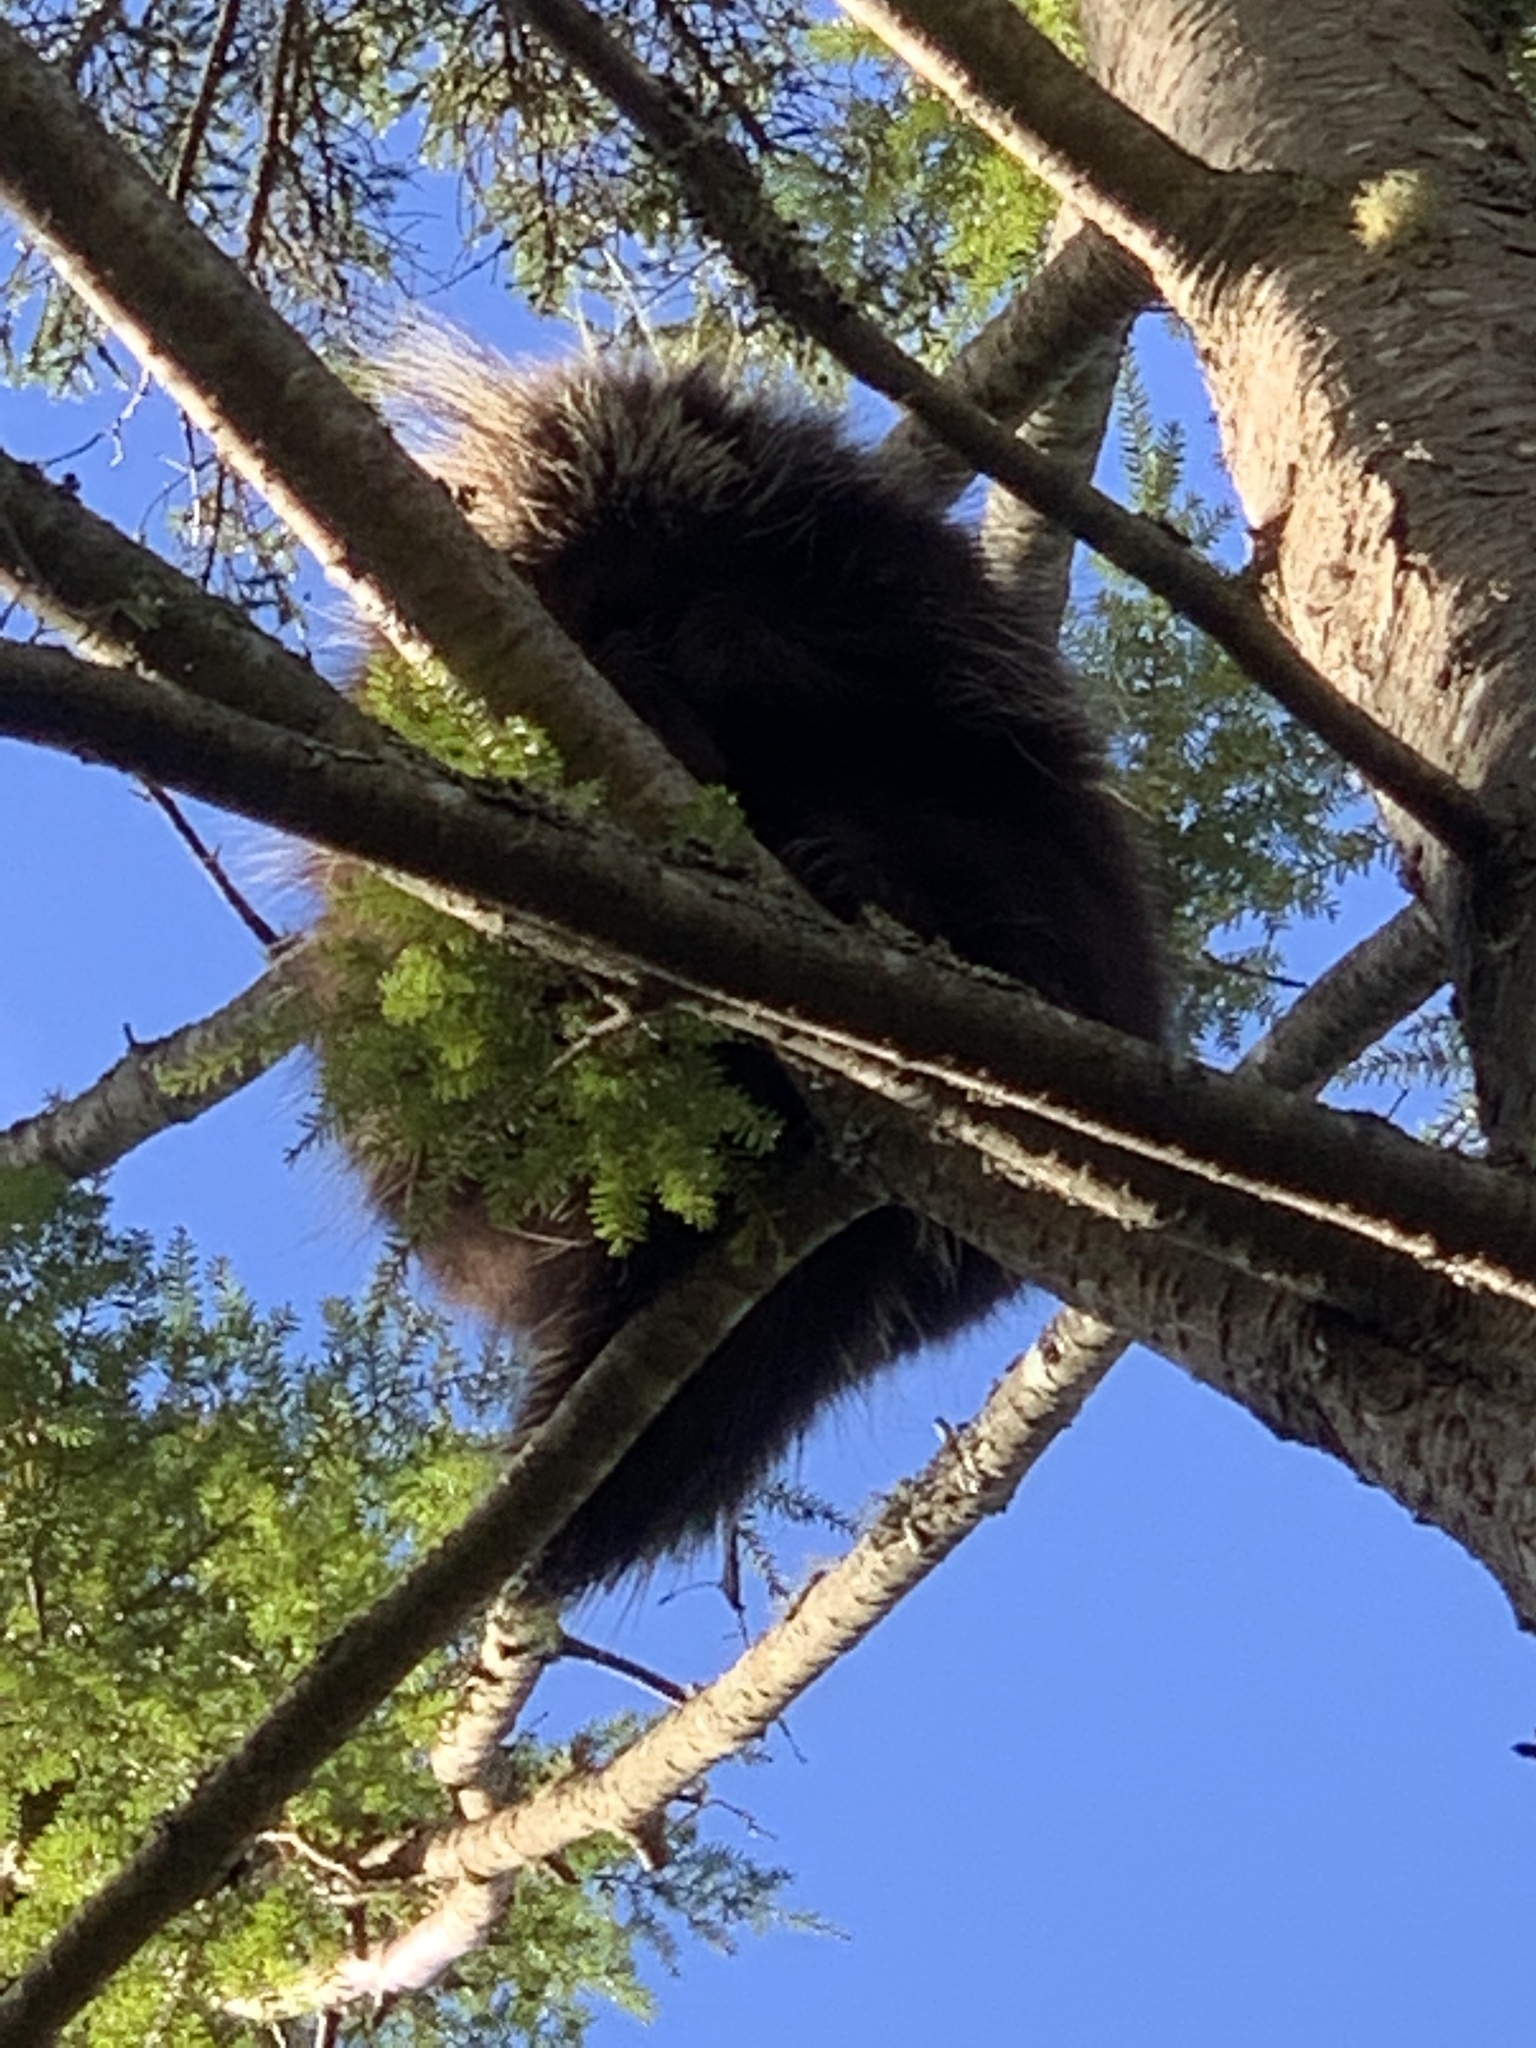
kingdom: Animalia
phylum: Chordata
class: Mammalia
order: Rodentia
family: Erethizontidae
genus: Erethizon
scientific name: Erethizon dorsatus
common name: North american porcupine
